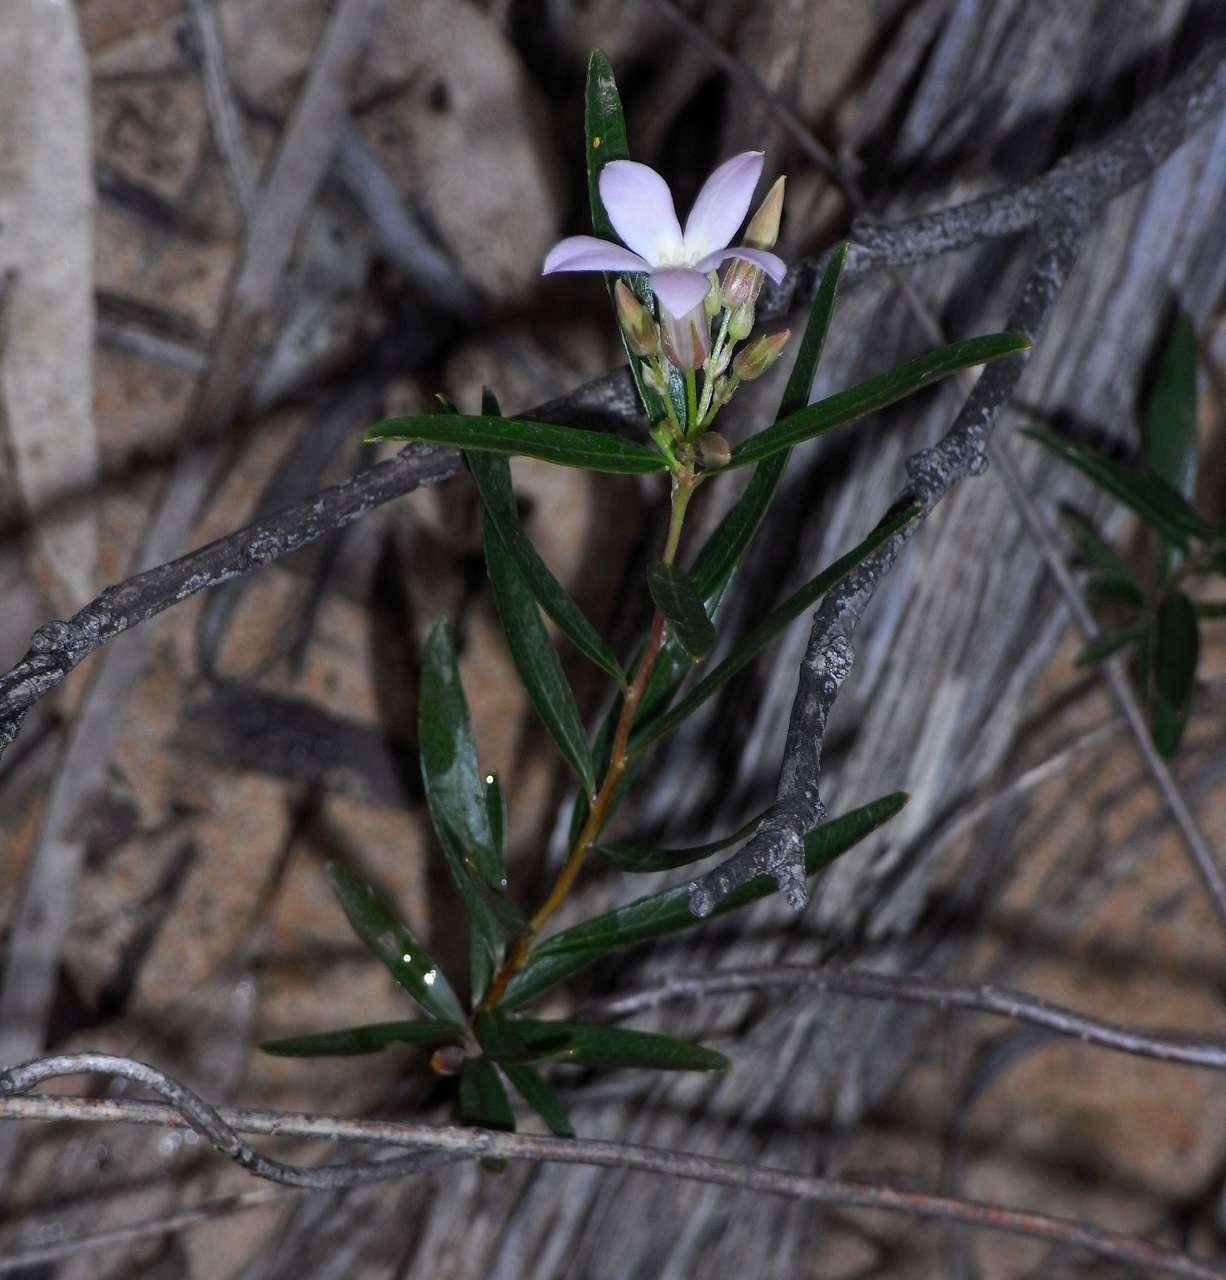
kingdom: Plantae
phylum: Tracheophyta
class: Magnoliopsida
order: Apiales
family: Pittosporaceae
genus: Billardiera
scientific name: Billardiera cymosa
